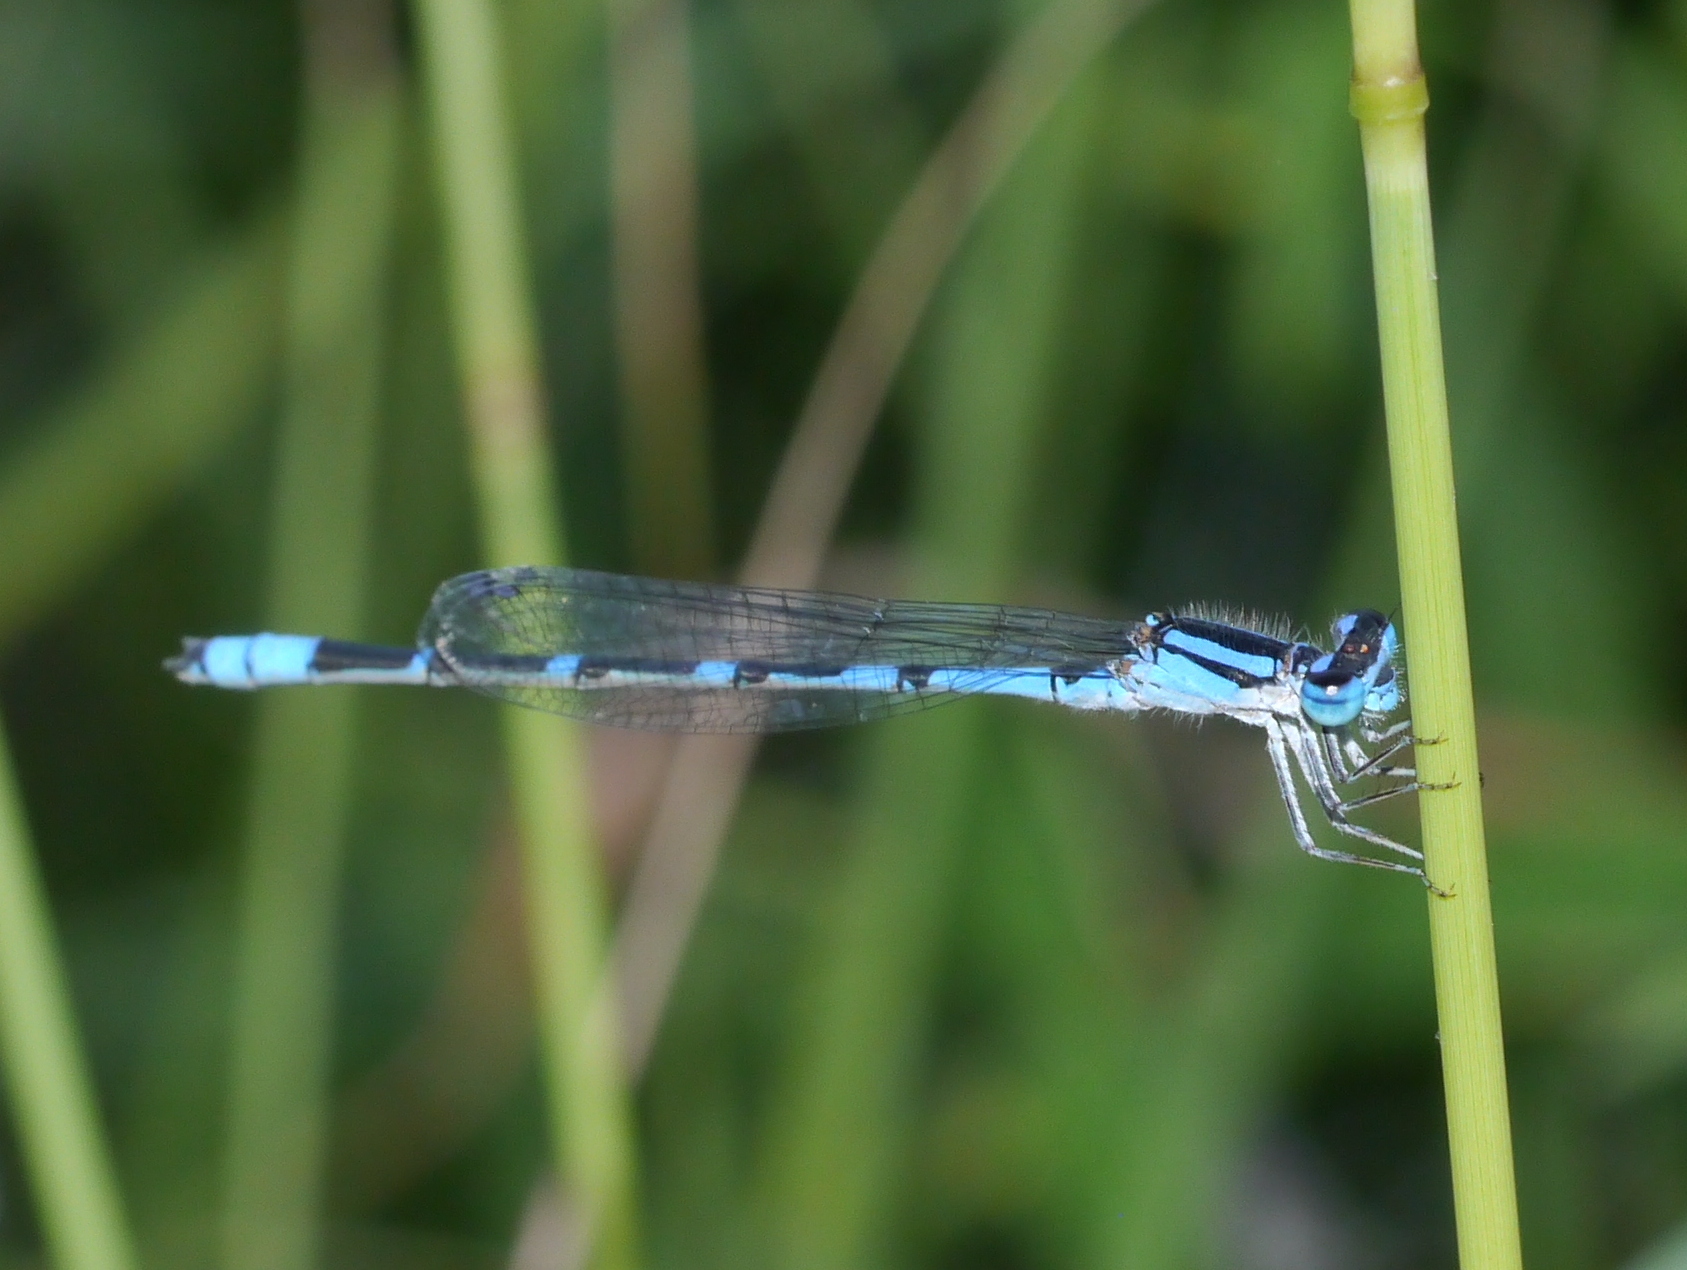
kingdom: Animalia
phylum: Arthropoda
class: Insecta
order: Odonata
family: Coenagrionidae
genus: Enallagma
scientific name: Enallagma praevarum
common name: Arroyo bluet
